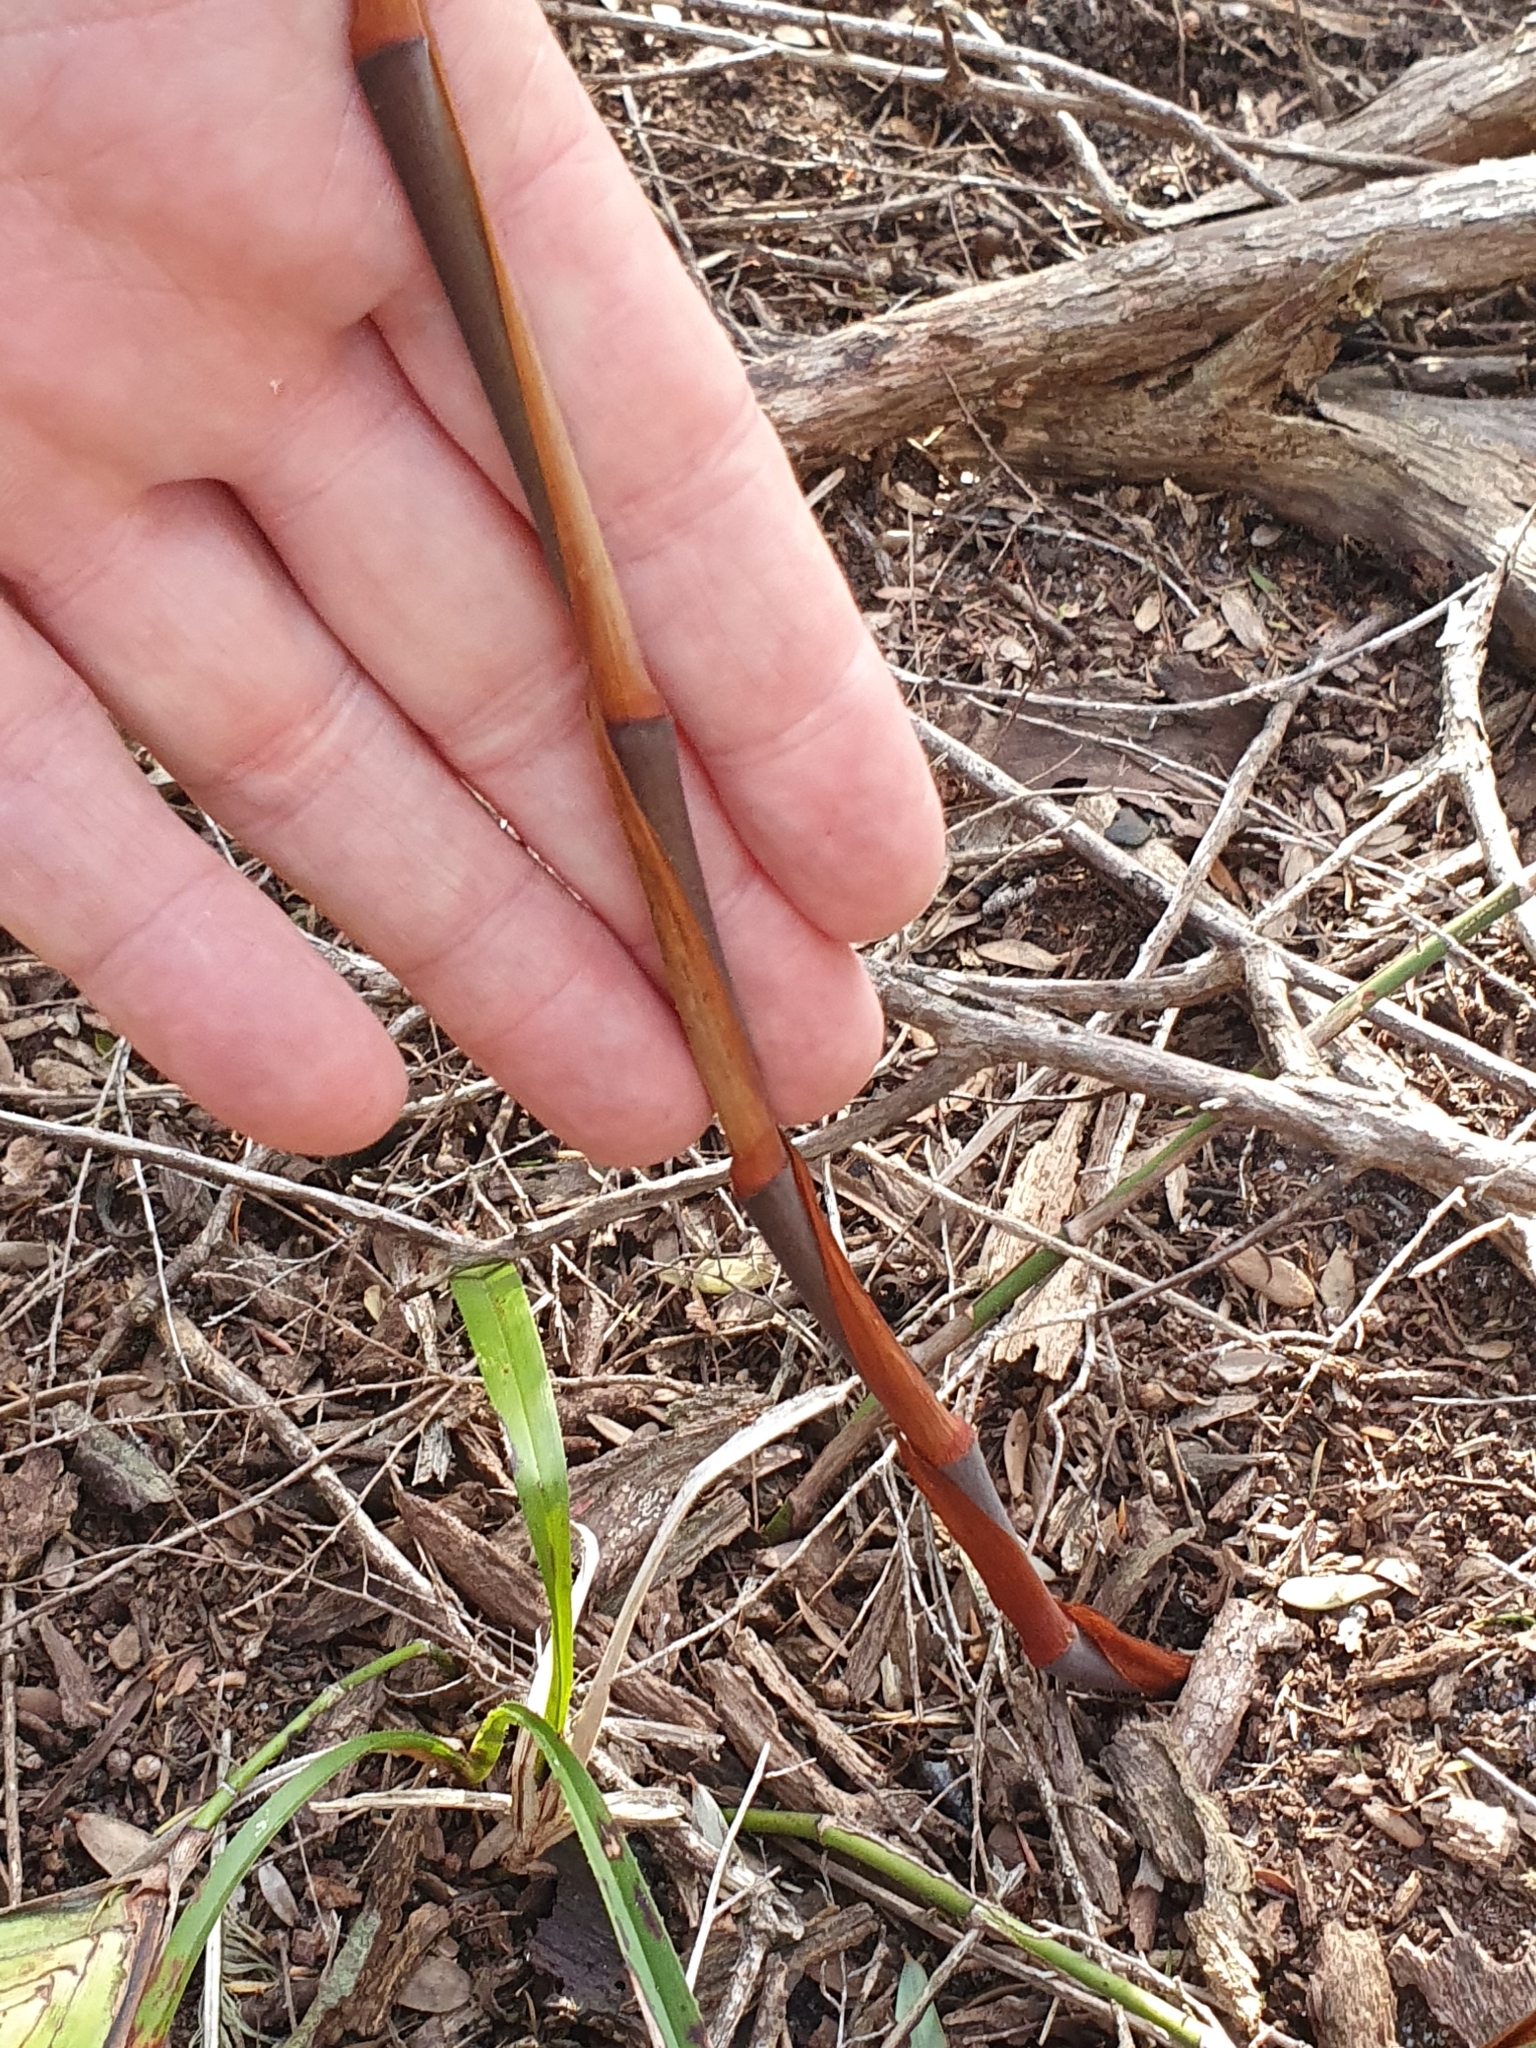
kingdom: Plantae
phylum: Tracheophyta
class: Liliopsida
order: Asparagales
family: Asphodelaceae
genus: Dianella
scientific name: Dianella caerulea
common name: Blue flax-lily
